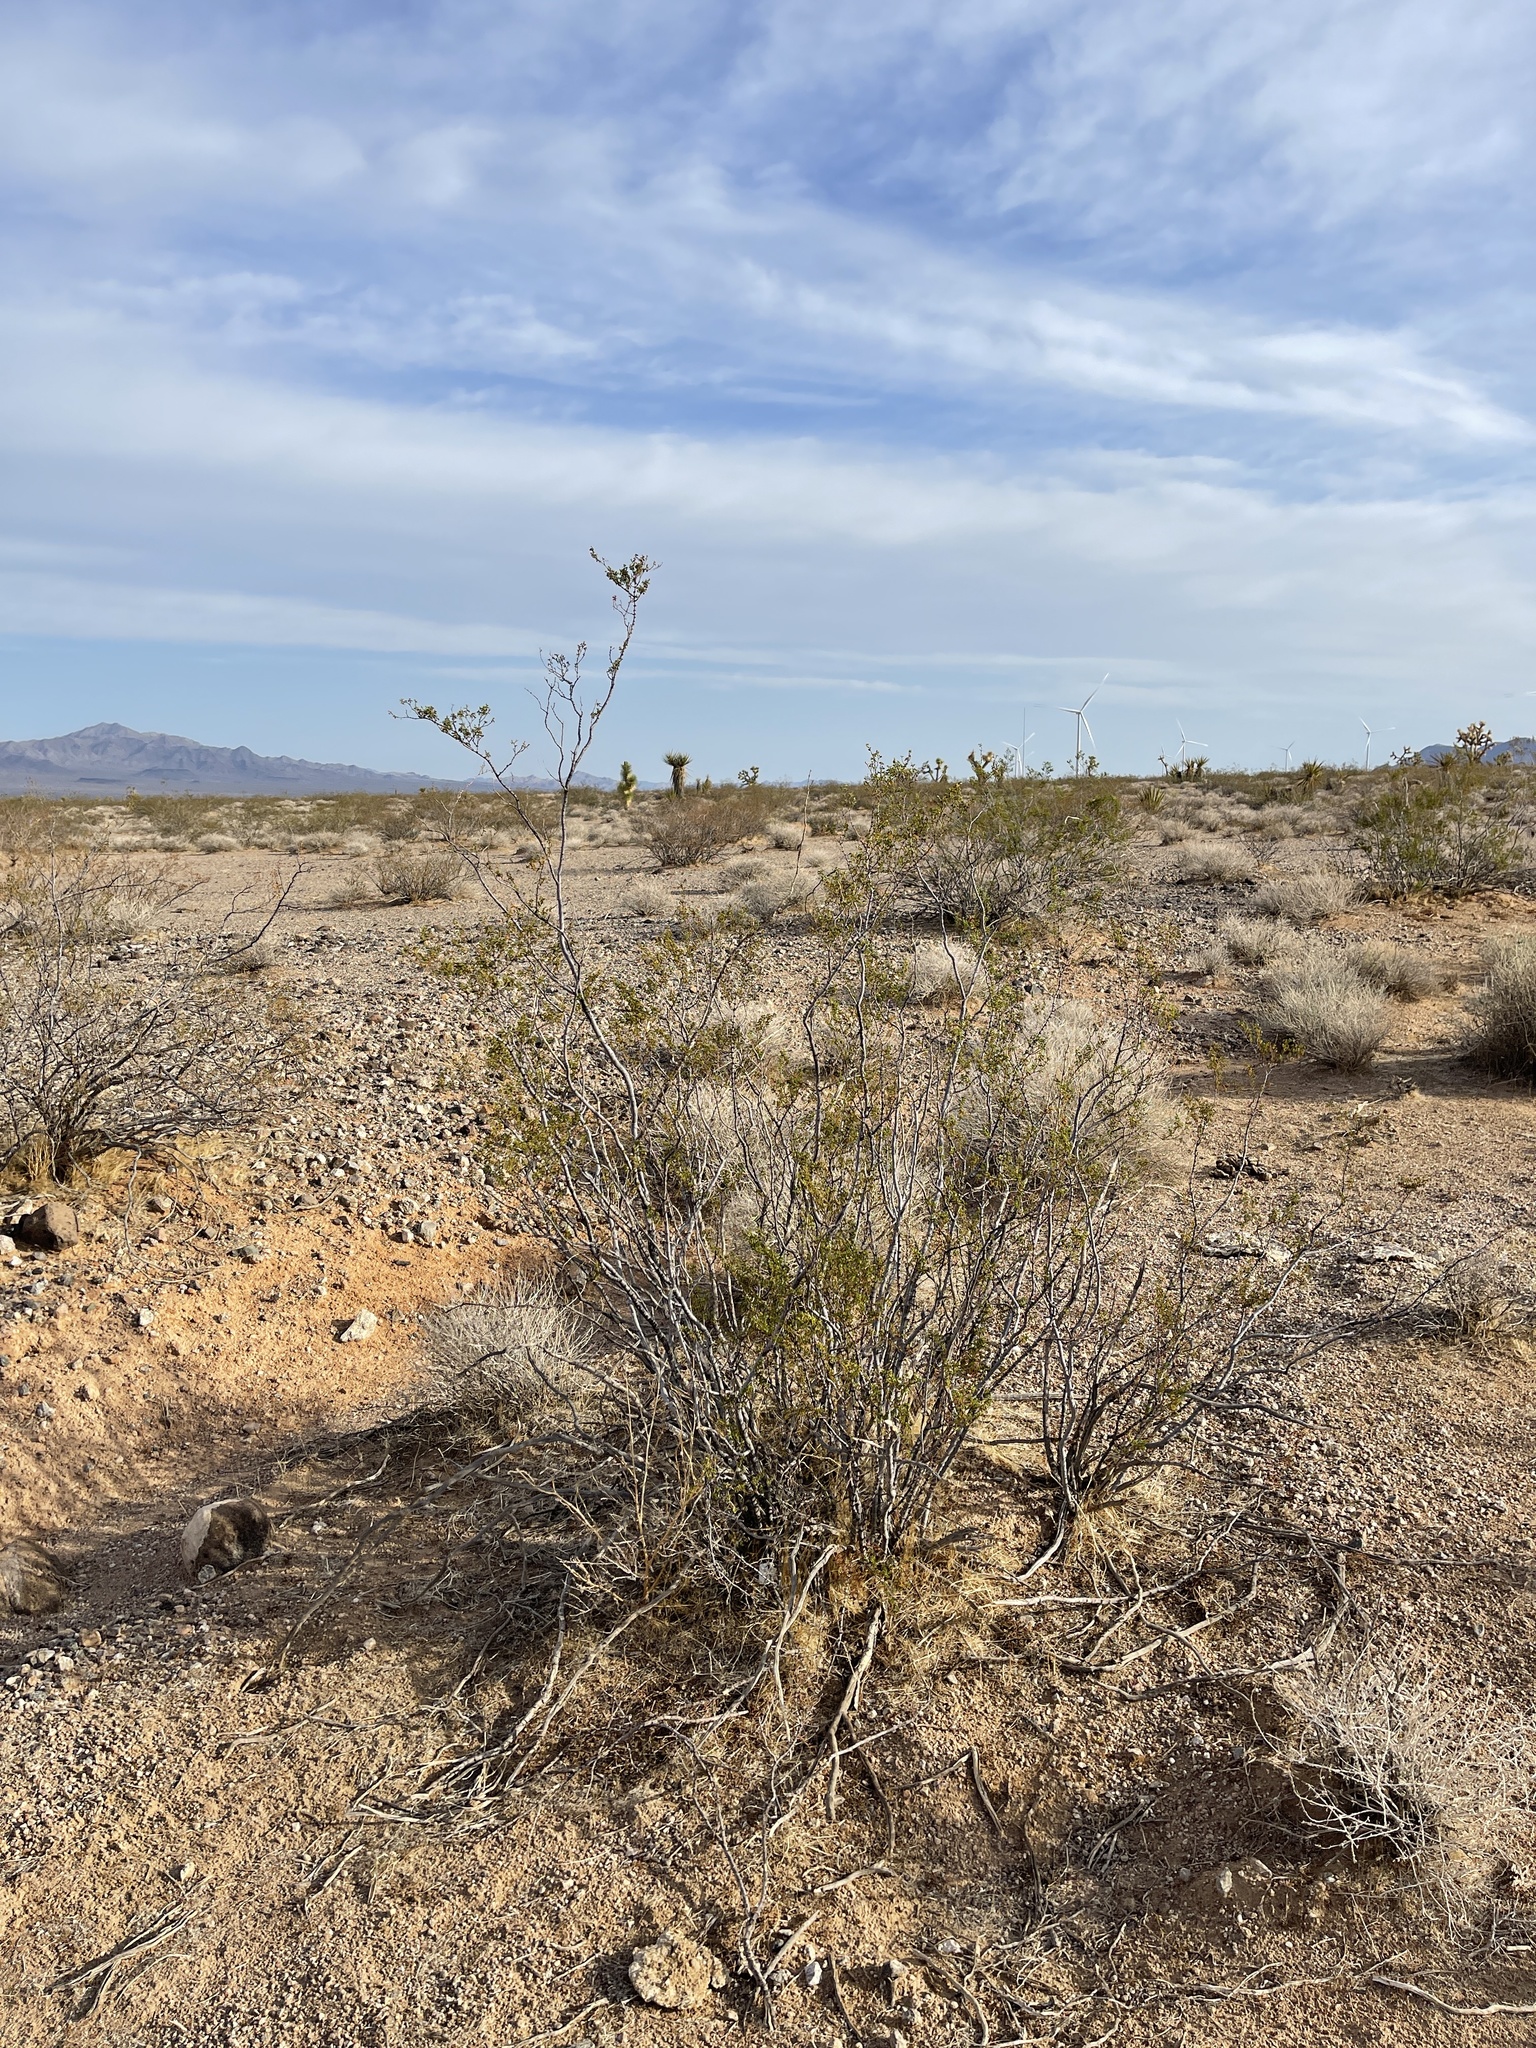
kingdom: Plantae
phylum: Tracheophyta
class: Magnoliopsida
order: Zygophyllales
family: Zygophyllaceae
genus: Larrea
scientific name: Larrea tridentata
